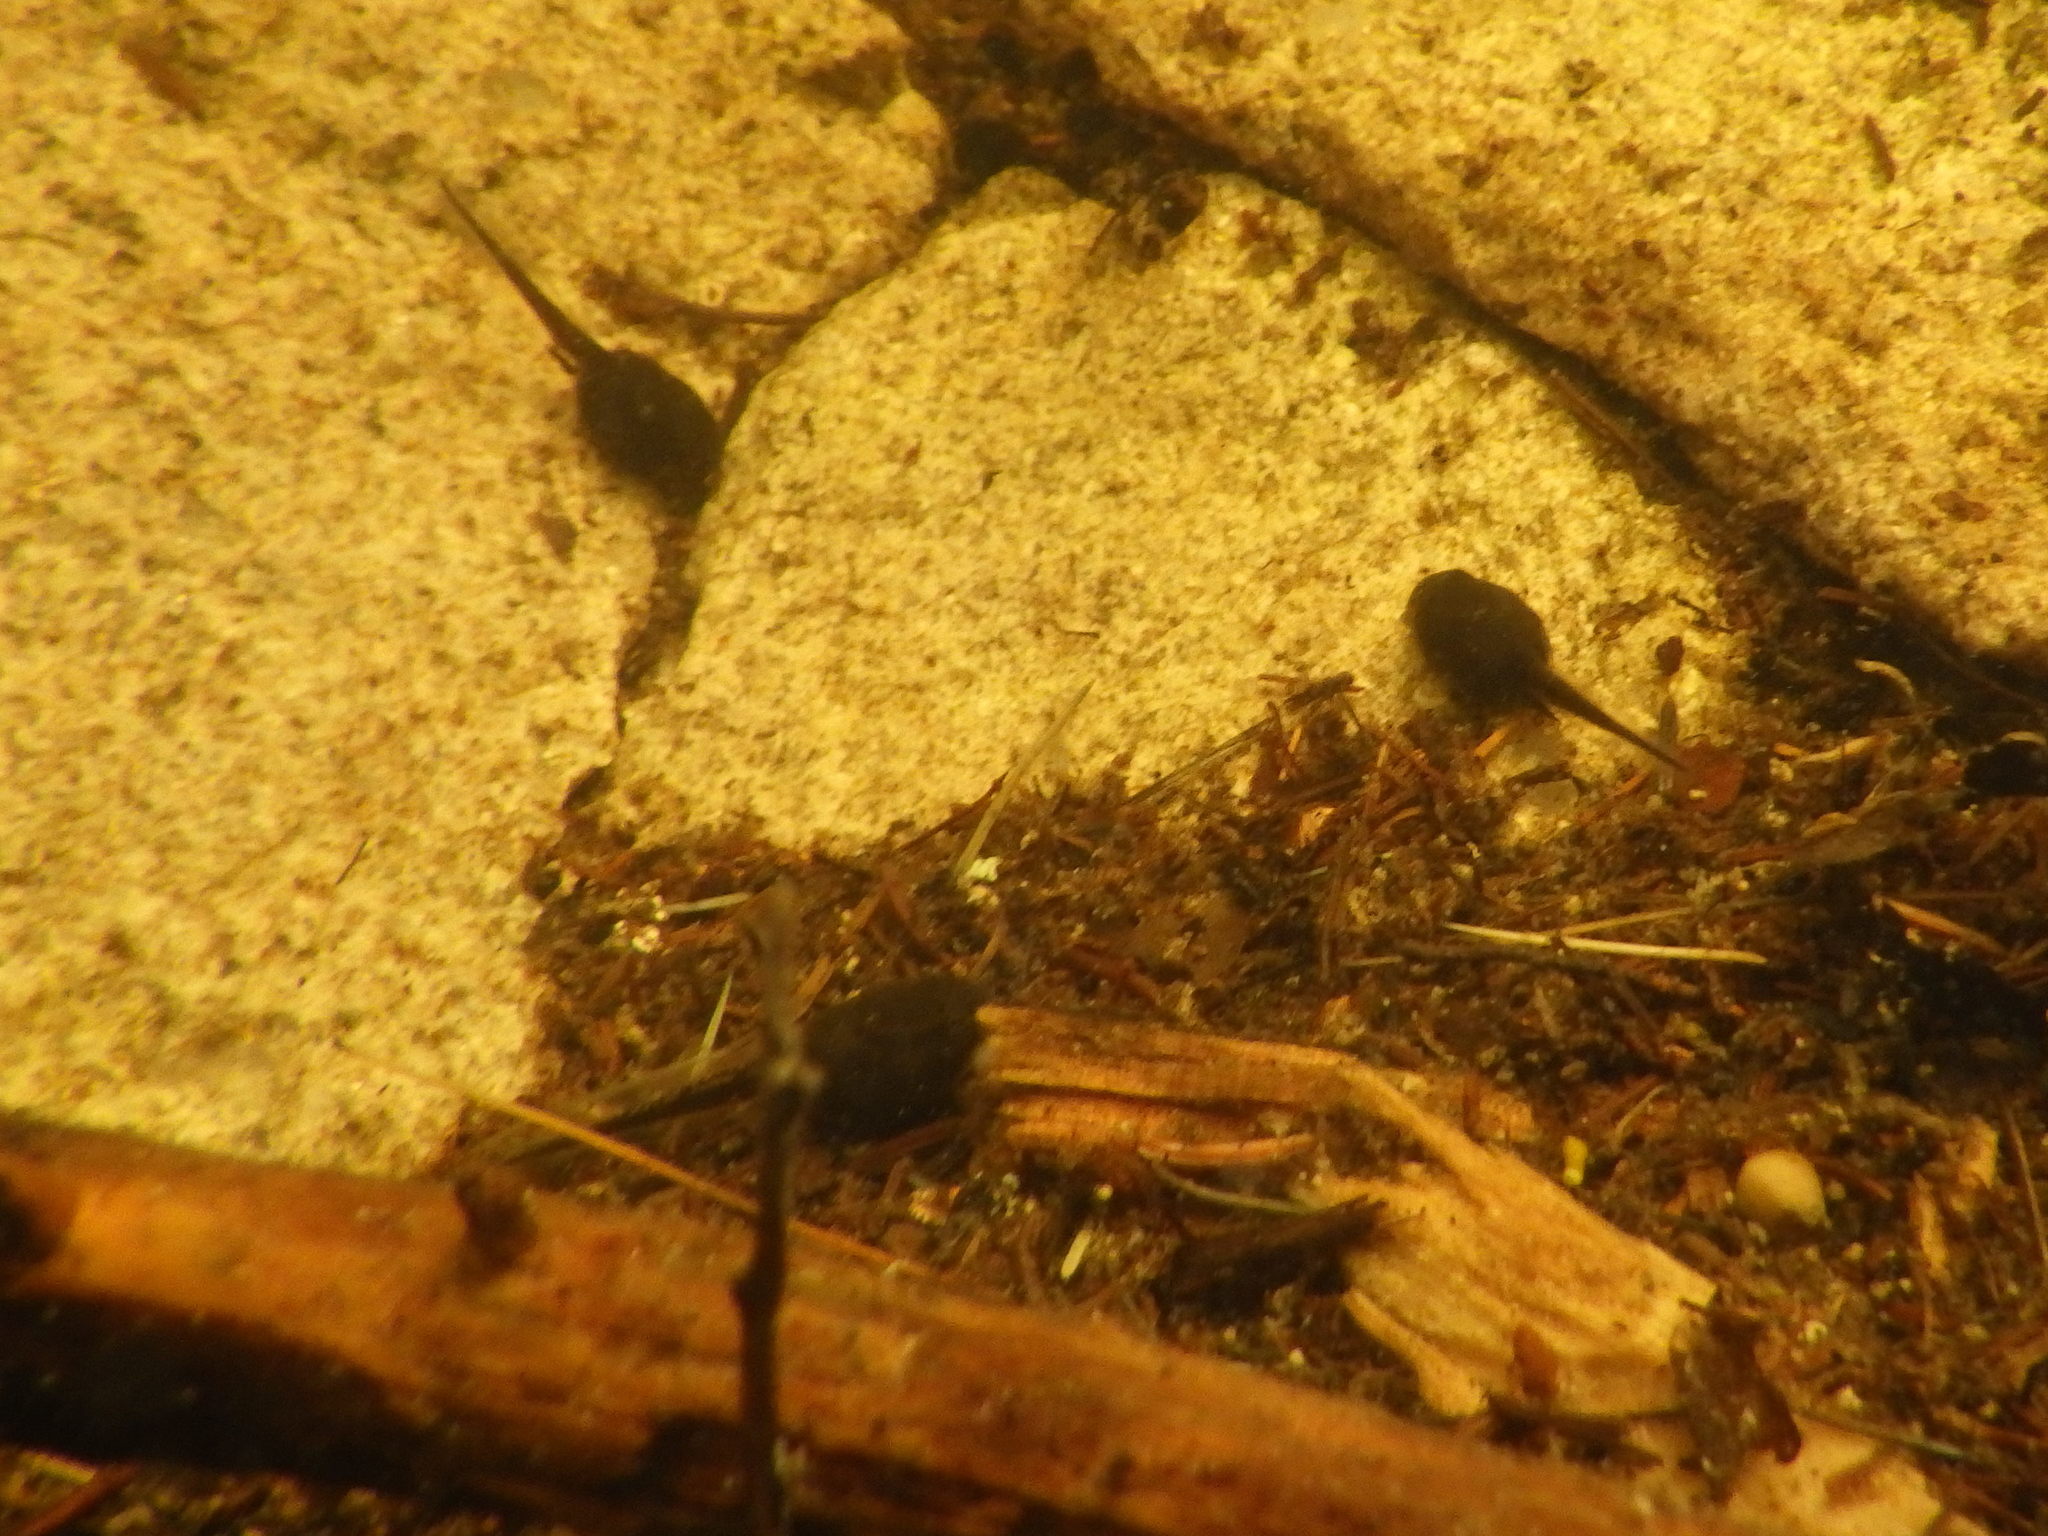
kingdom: Animalia
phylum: Chordata
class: Amphibia
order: Anura
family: Bufonidae
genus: Anaxyrus
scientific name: Anaxyrus americanus
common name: American toad
